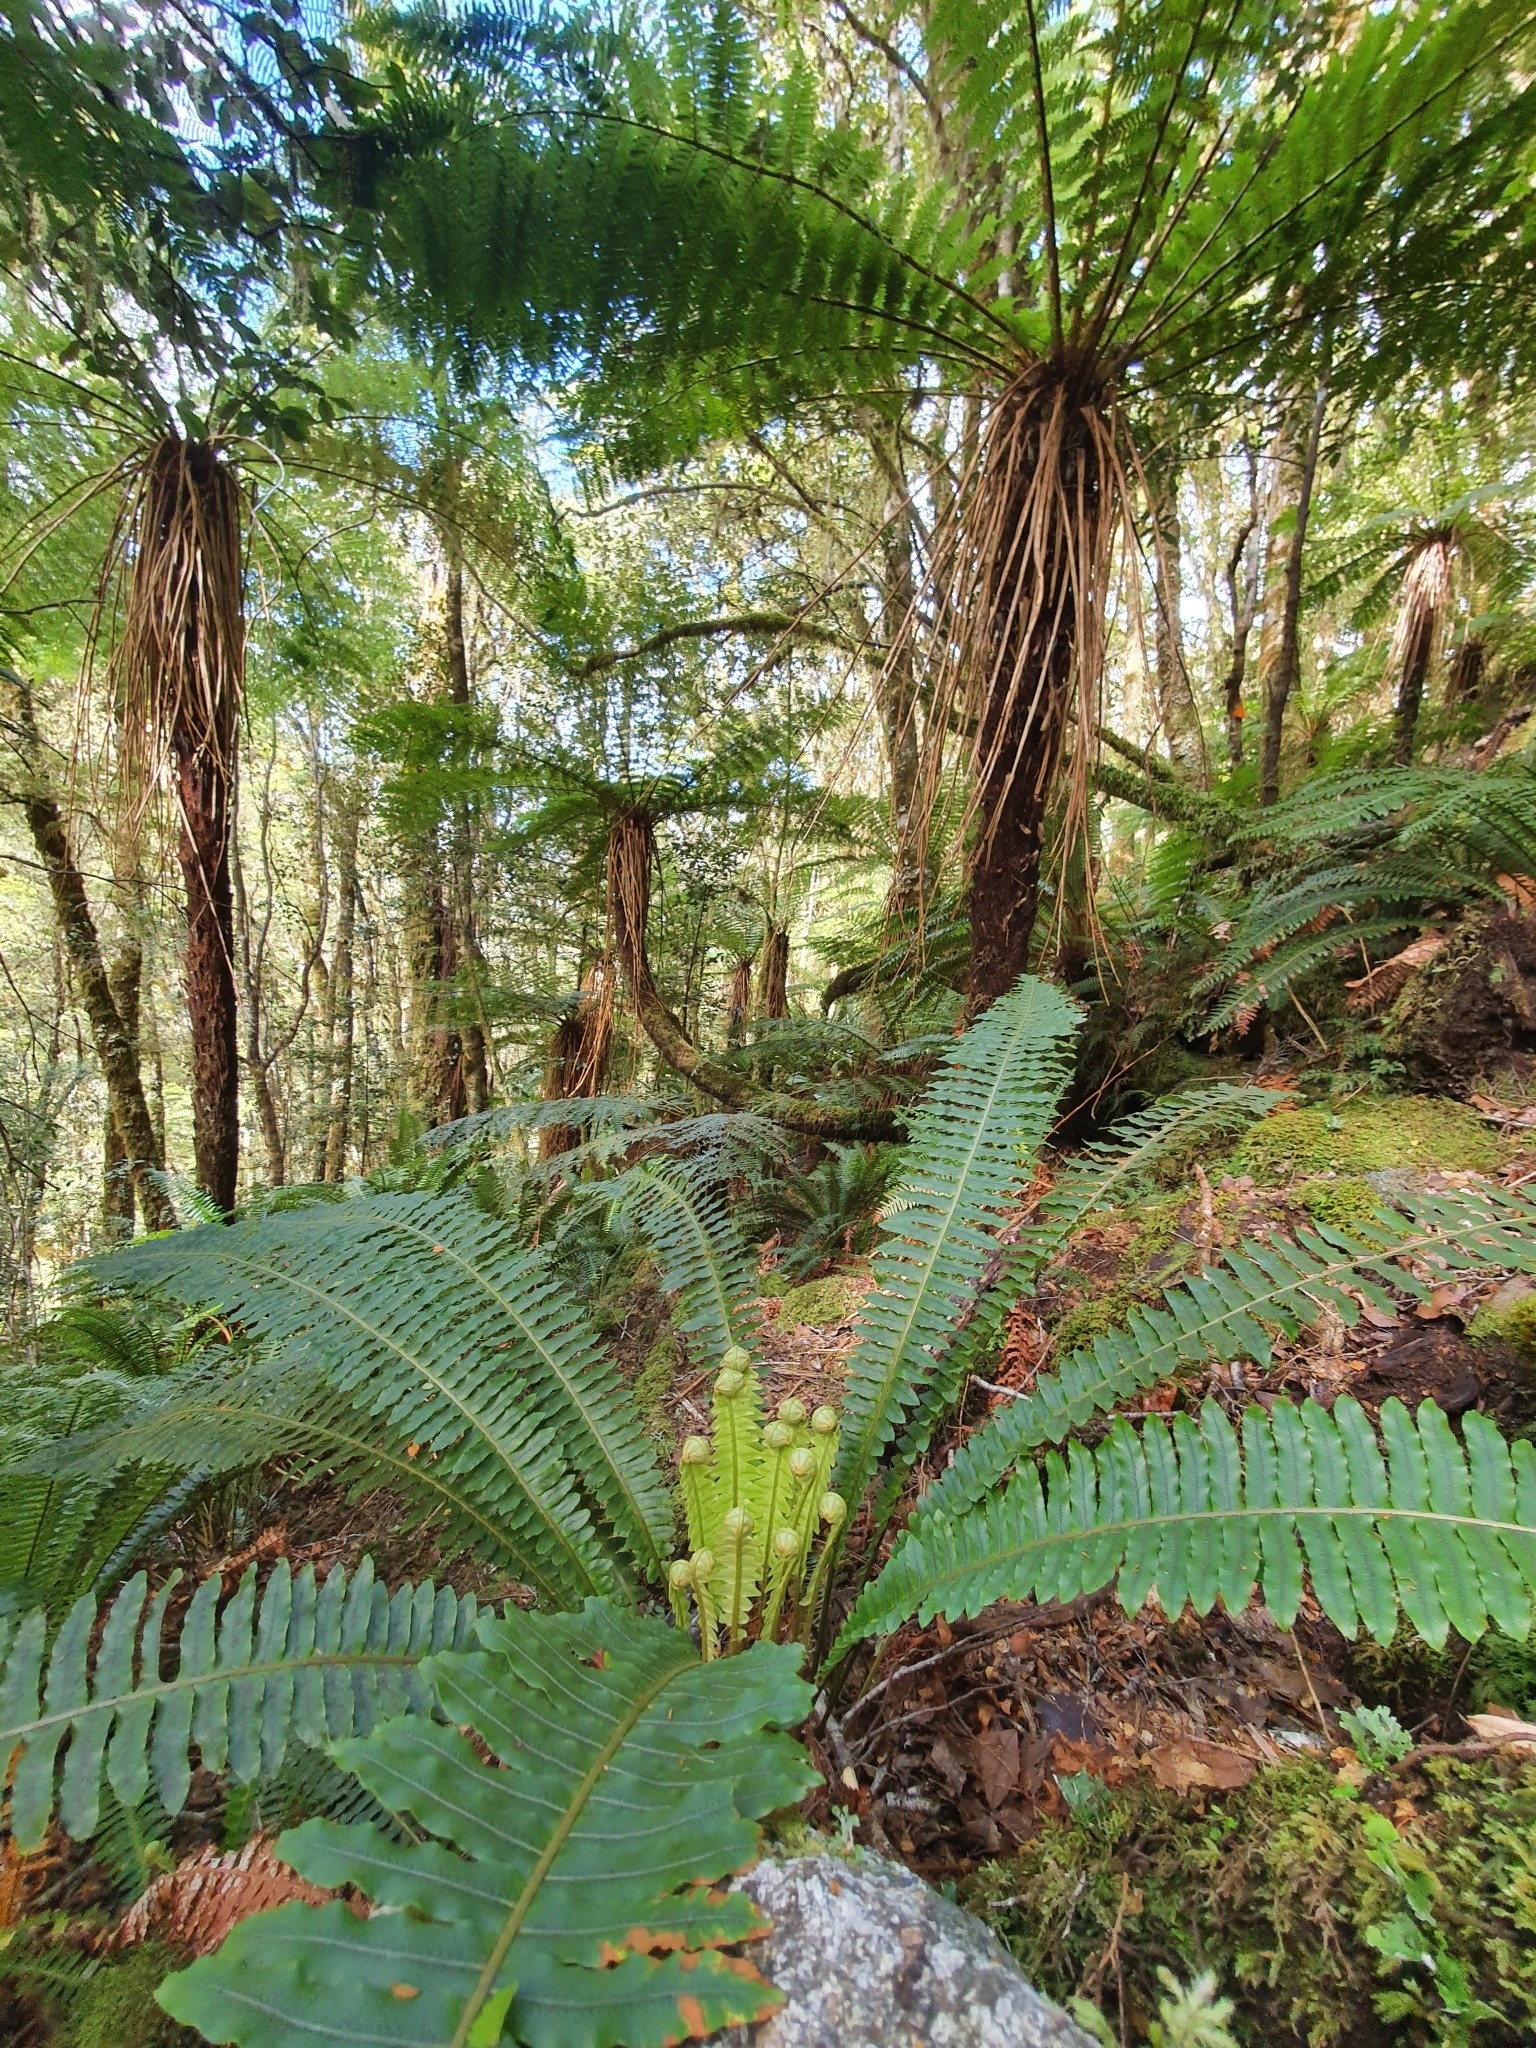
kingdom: Plantae
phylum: Tracheophyta
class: Polypodiopsida
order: Polypodiales
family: Blechnaceae
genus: Lomaria
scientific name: Lomaria discolor
